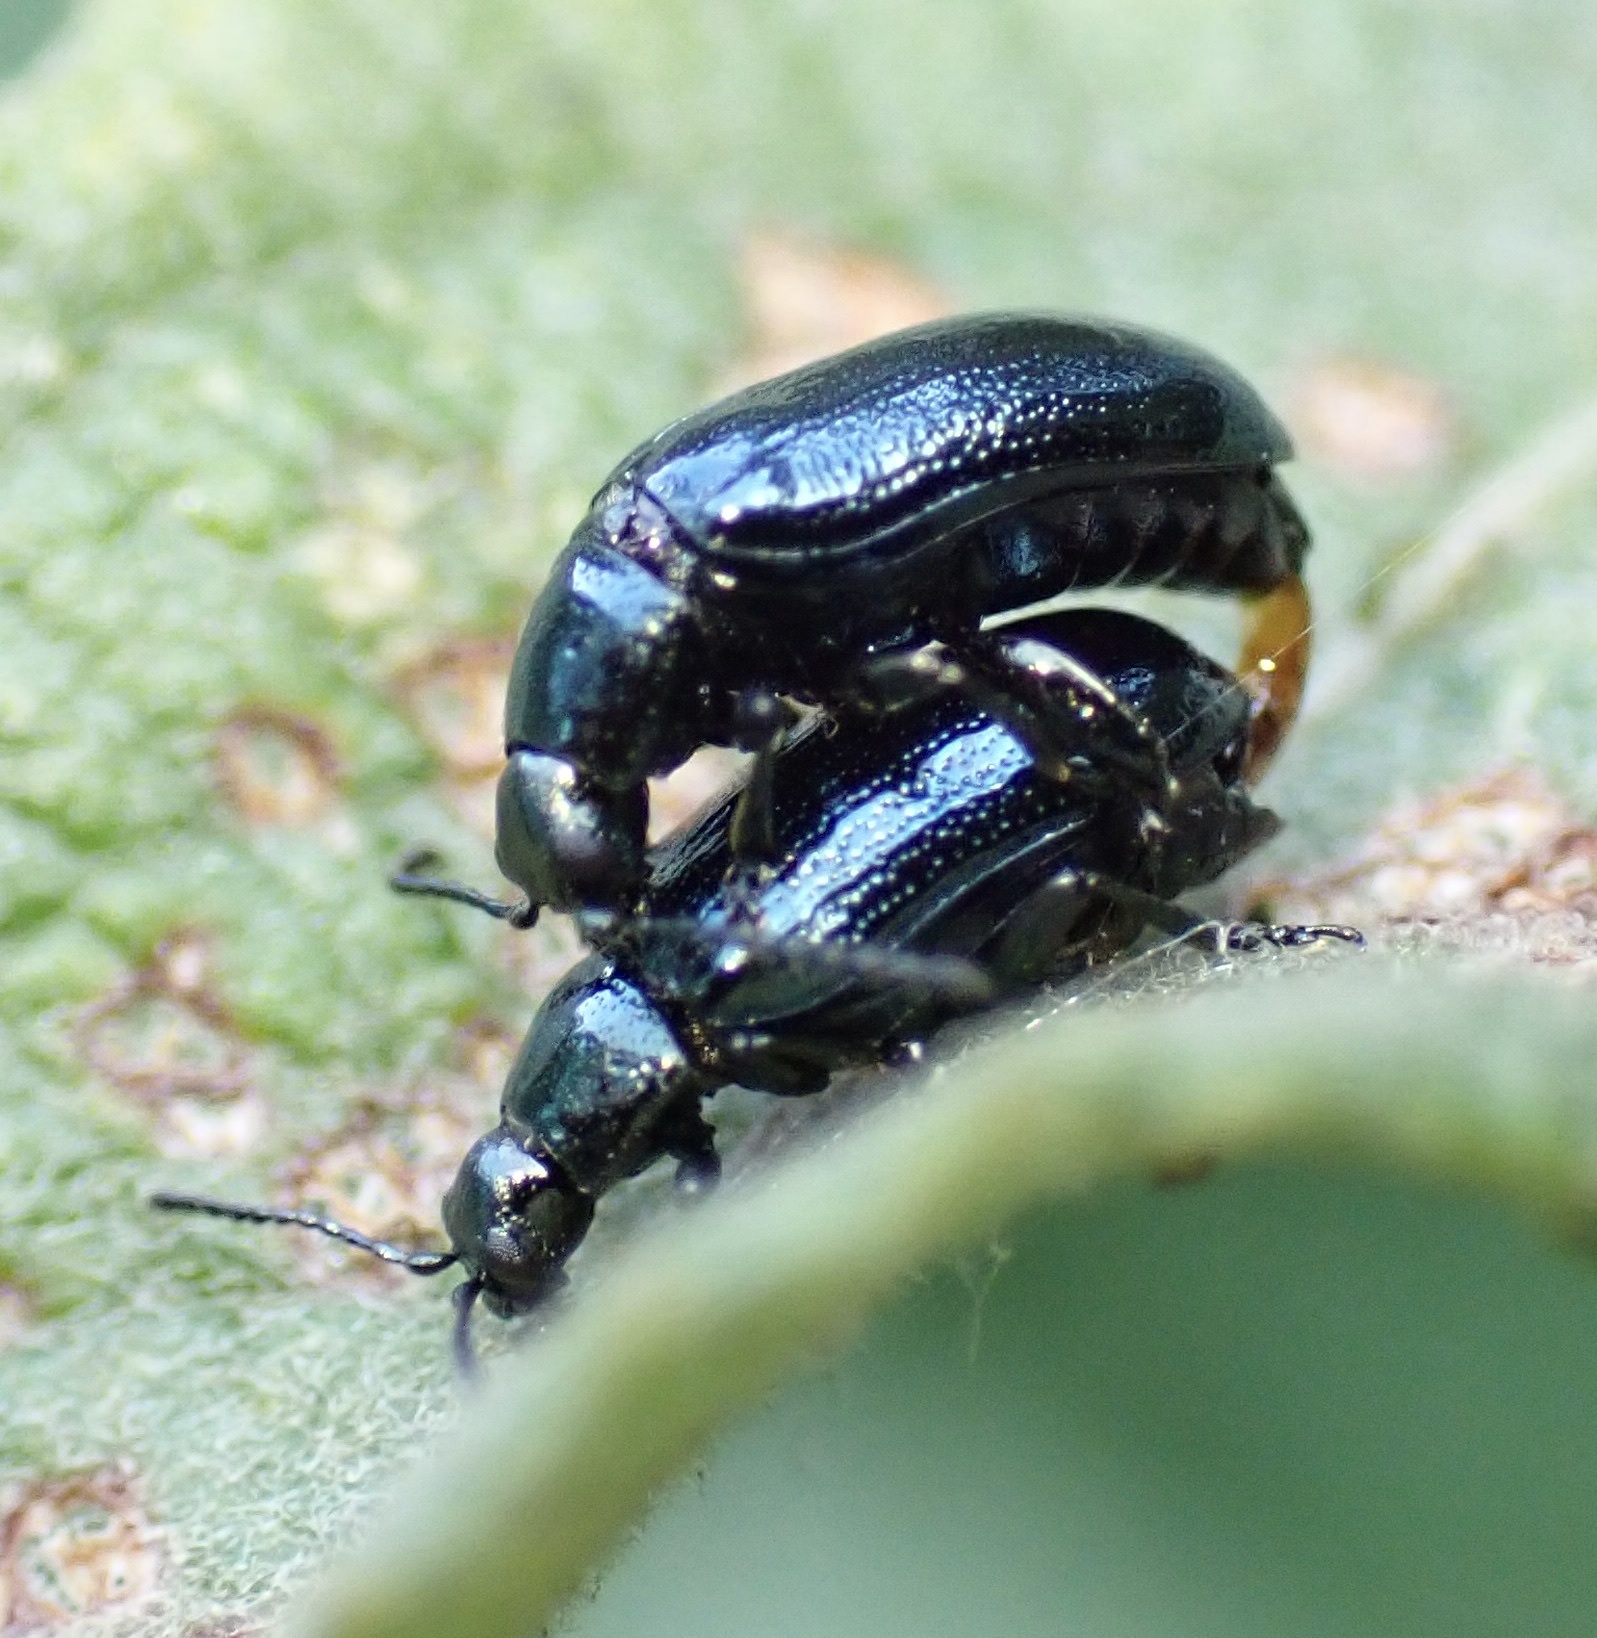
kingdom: Animalia
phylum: Arthropoda
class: Insecta
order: Coleoptera
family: Chrysomelidae
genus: Phratora
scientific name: Phratora vulgatissima
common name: Blue willow beetle
